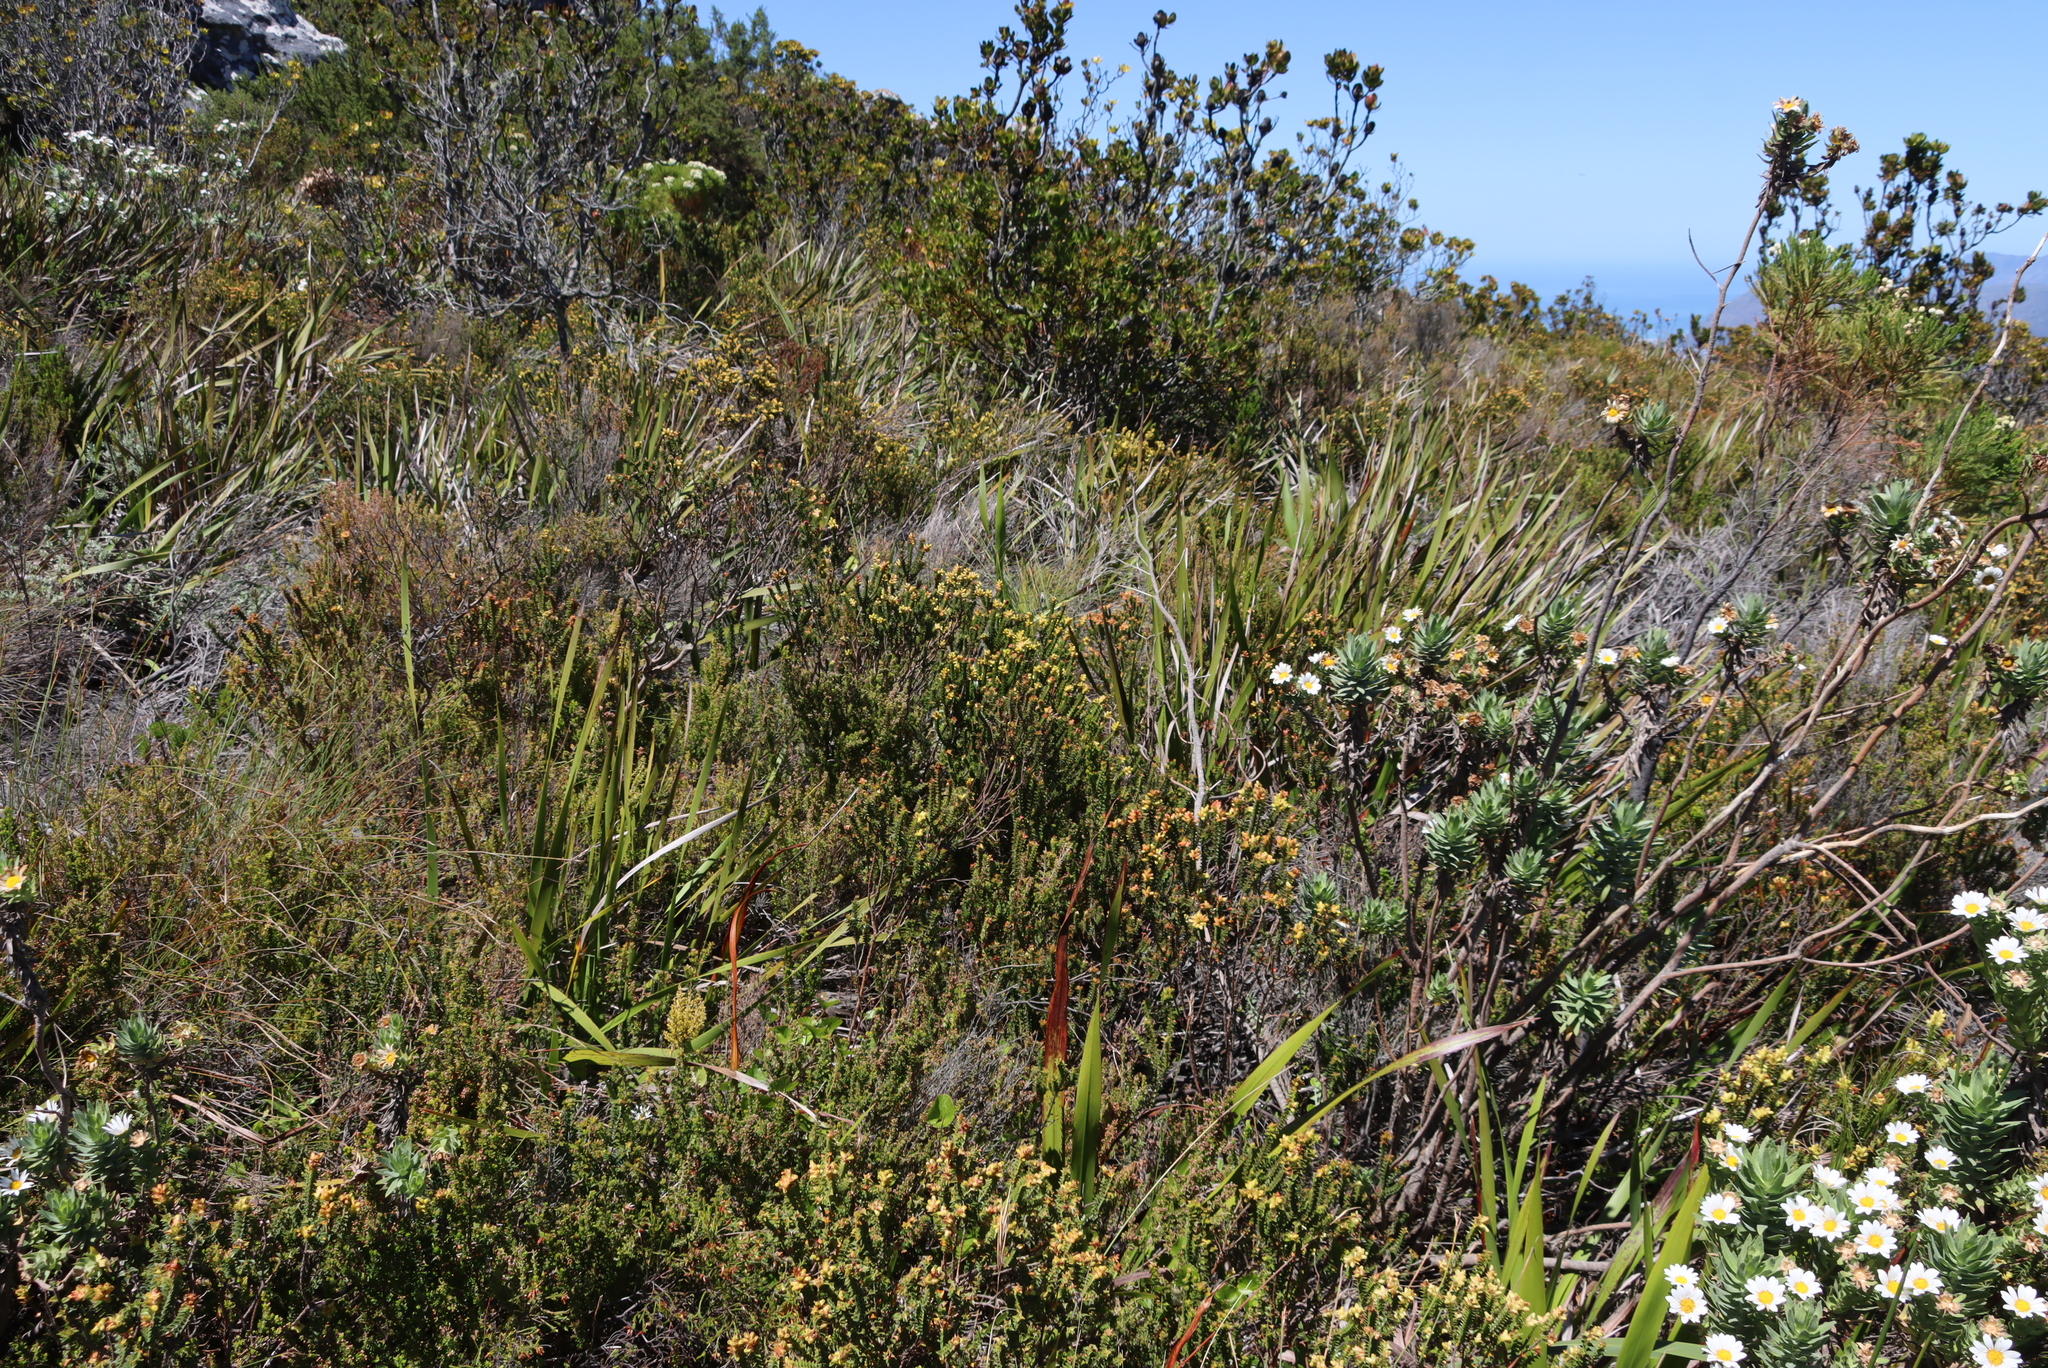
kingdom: Plantae
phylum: Tracheophyta
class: Magnoliopsida
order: Myrtales
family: Penaeaceae
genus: Penaea
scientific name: Penaea mucronata
